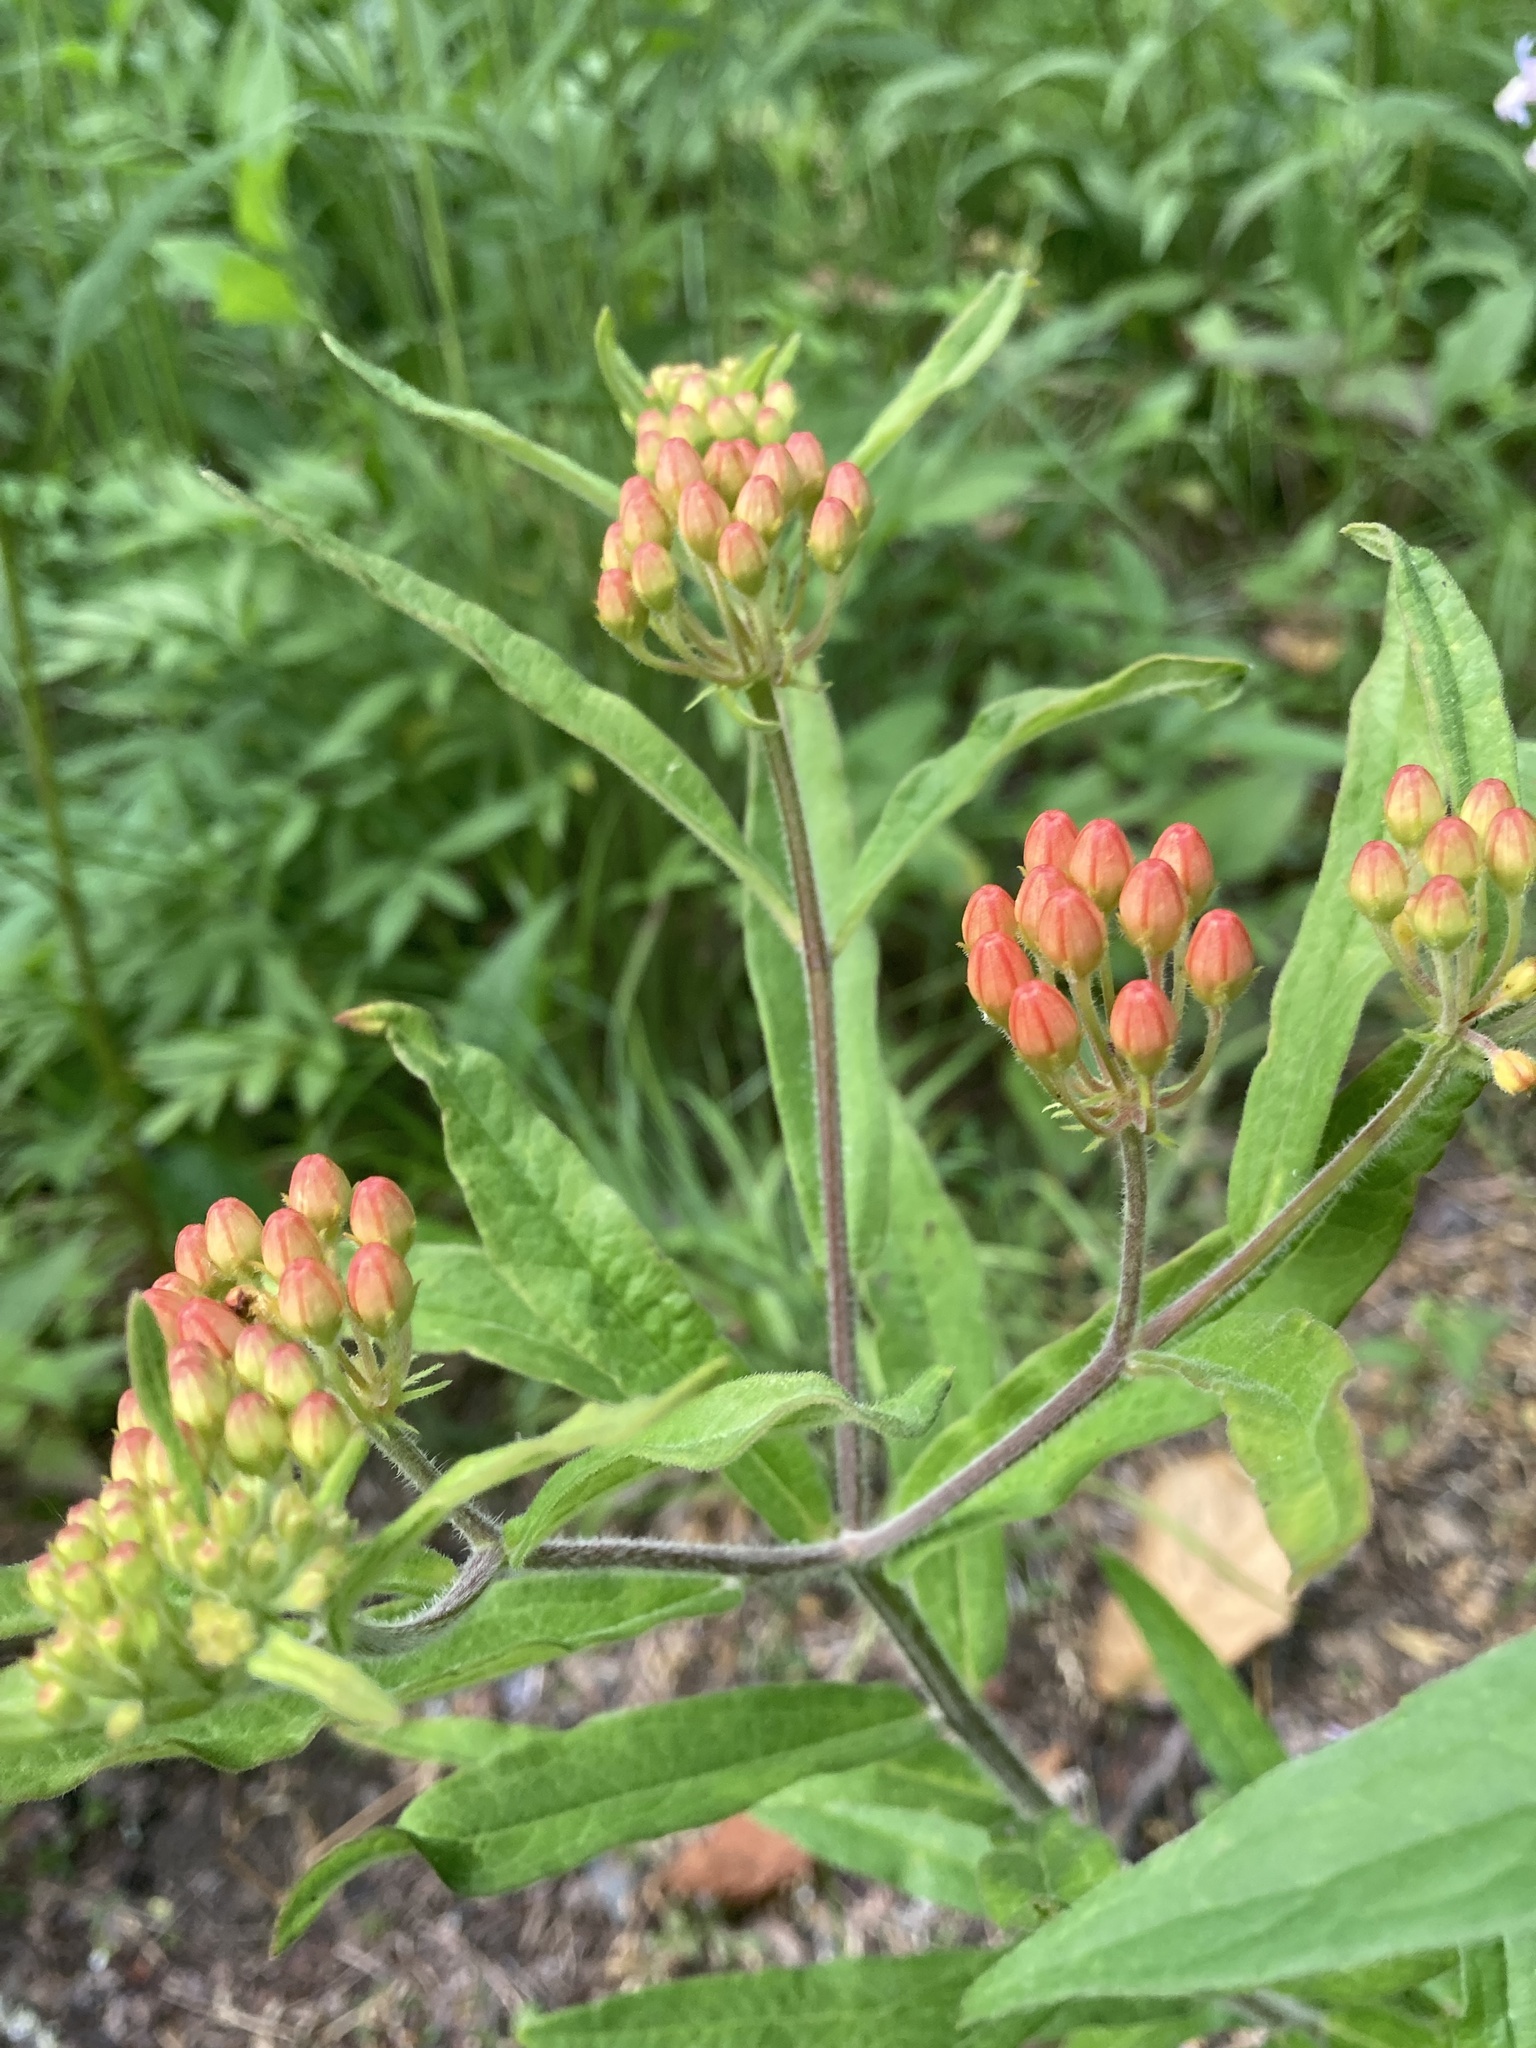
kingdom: Plantae
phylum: Tracheophyta
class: Magnoliopsida
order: Gentianales
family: Apocynaceae
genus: Asclepias
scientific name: Asclepias tuberosa
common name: Butterfly milkweed
